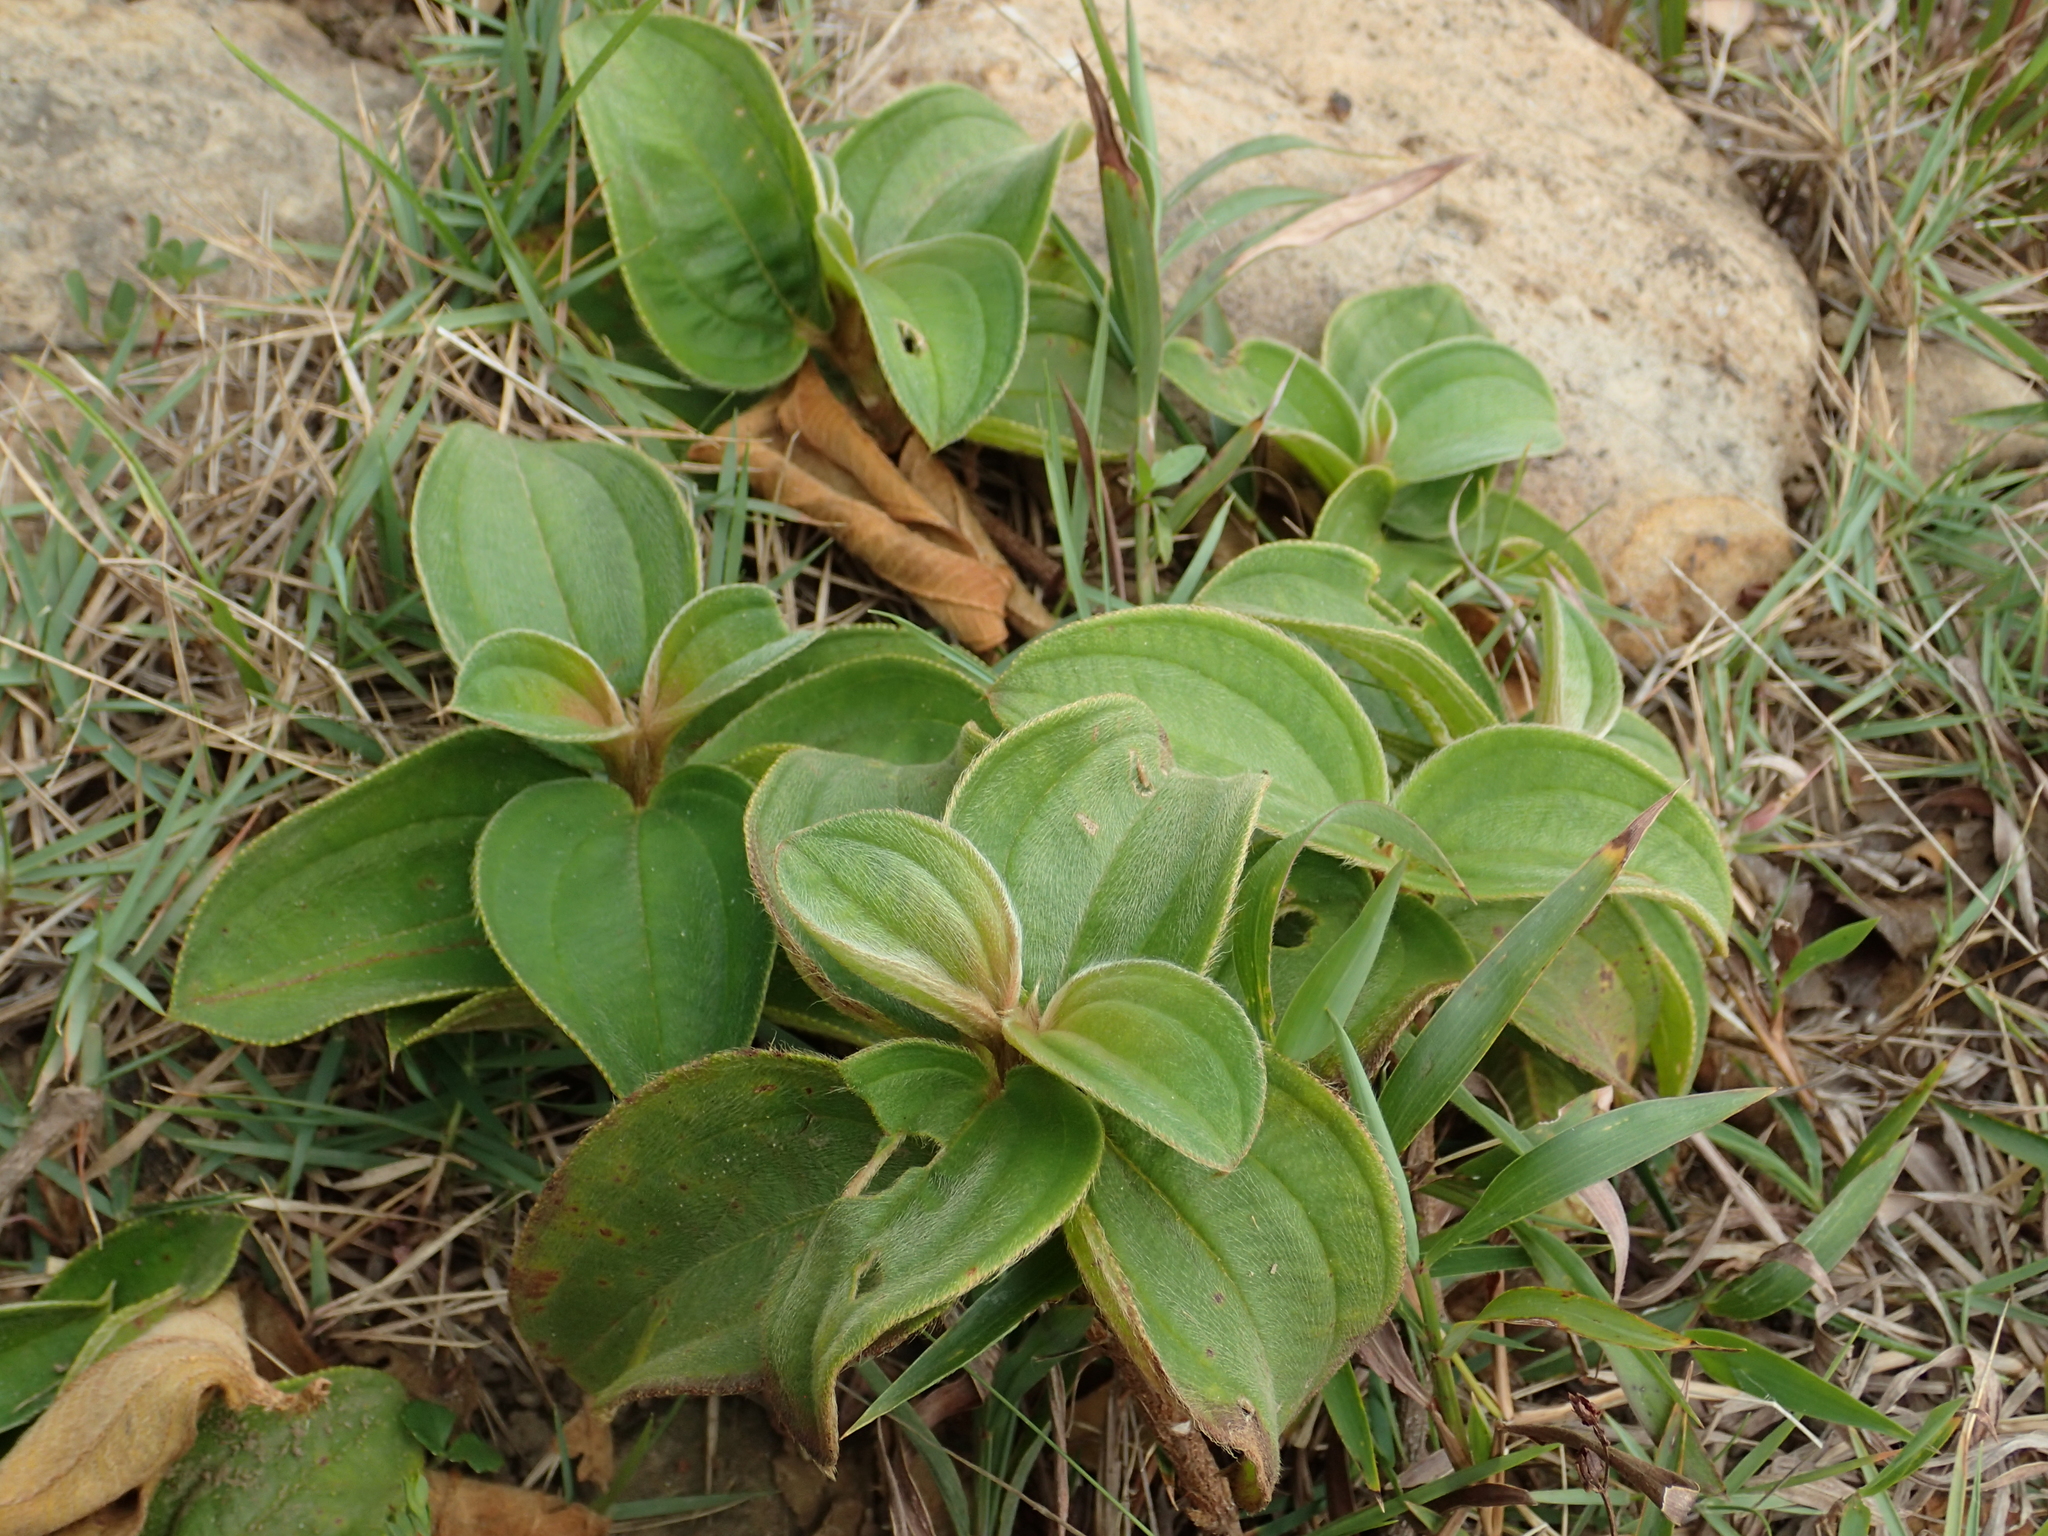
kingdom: Plantae
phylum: Tracheophyta
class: Magnoliopsida
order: Myrtales
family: Melastomataceae
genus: Melastoma
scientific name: Melastoma malabathricum
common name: Indian-rhododendron
